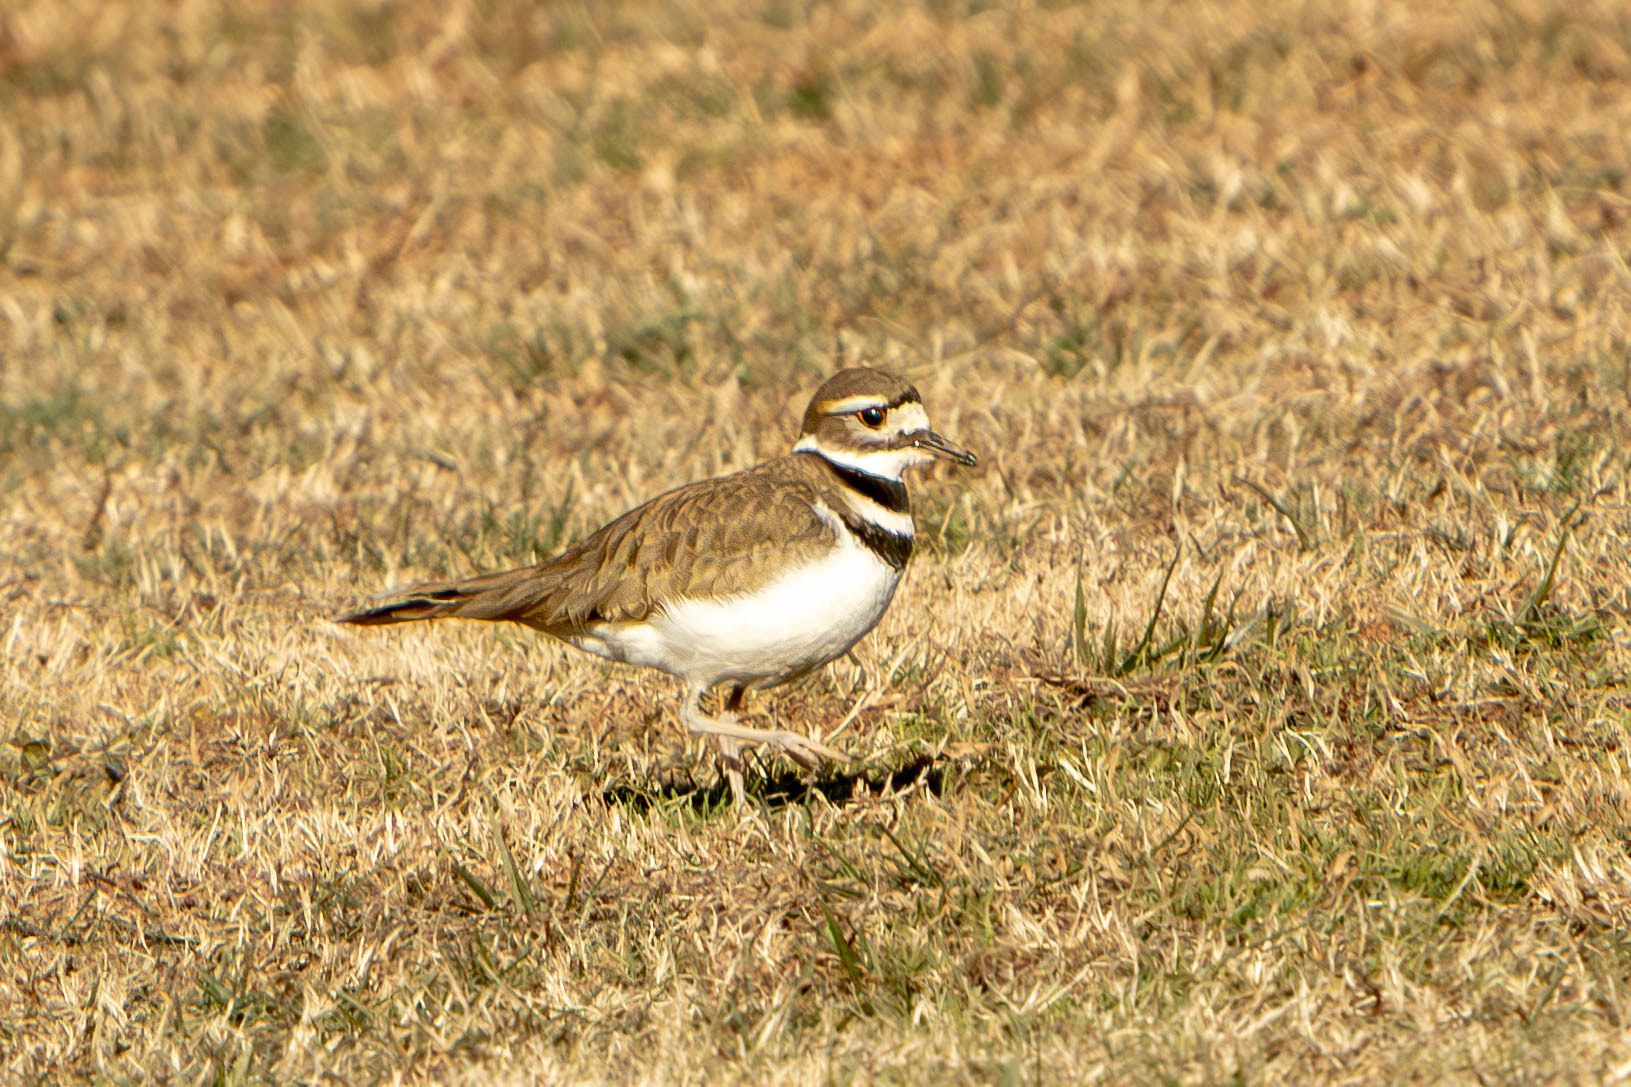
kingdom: Animalia
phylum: Chordata
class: Aves
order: Charadriiformes
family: Charadriidae
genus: Charadrius
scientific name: Charadrius vociferus
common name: Killdeer
